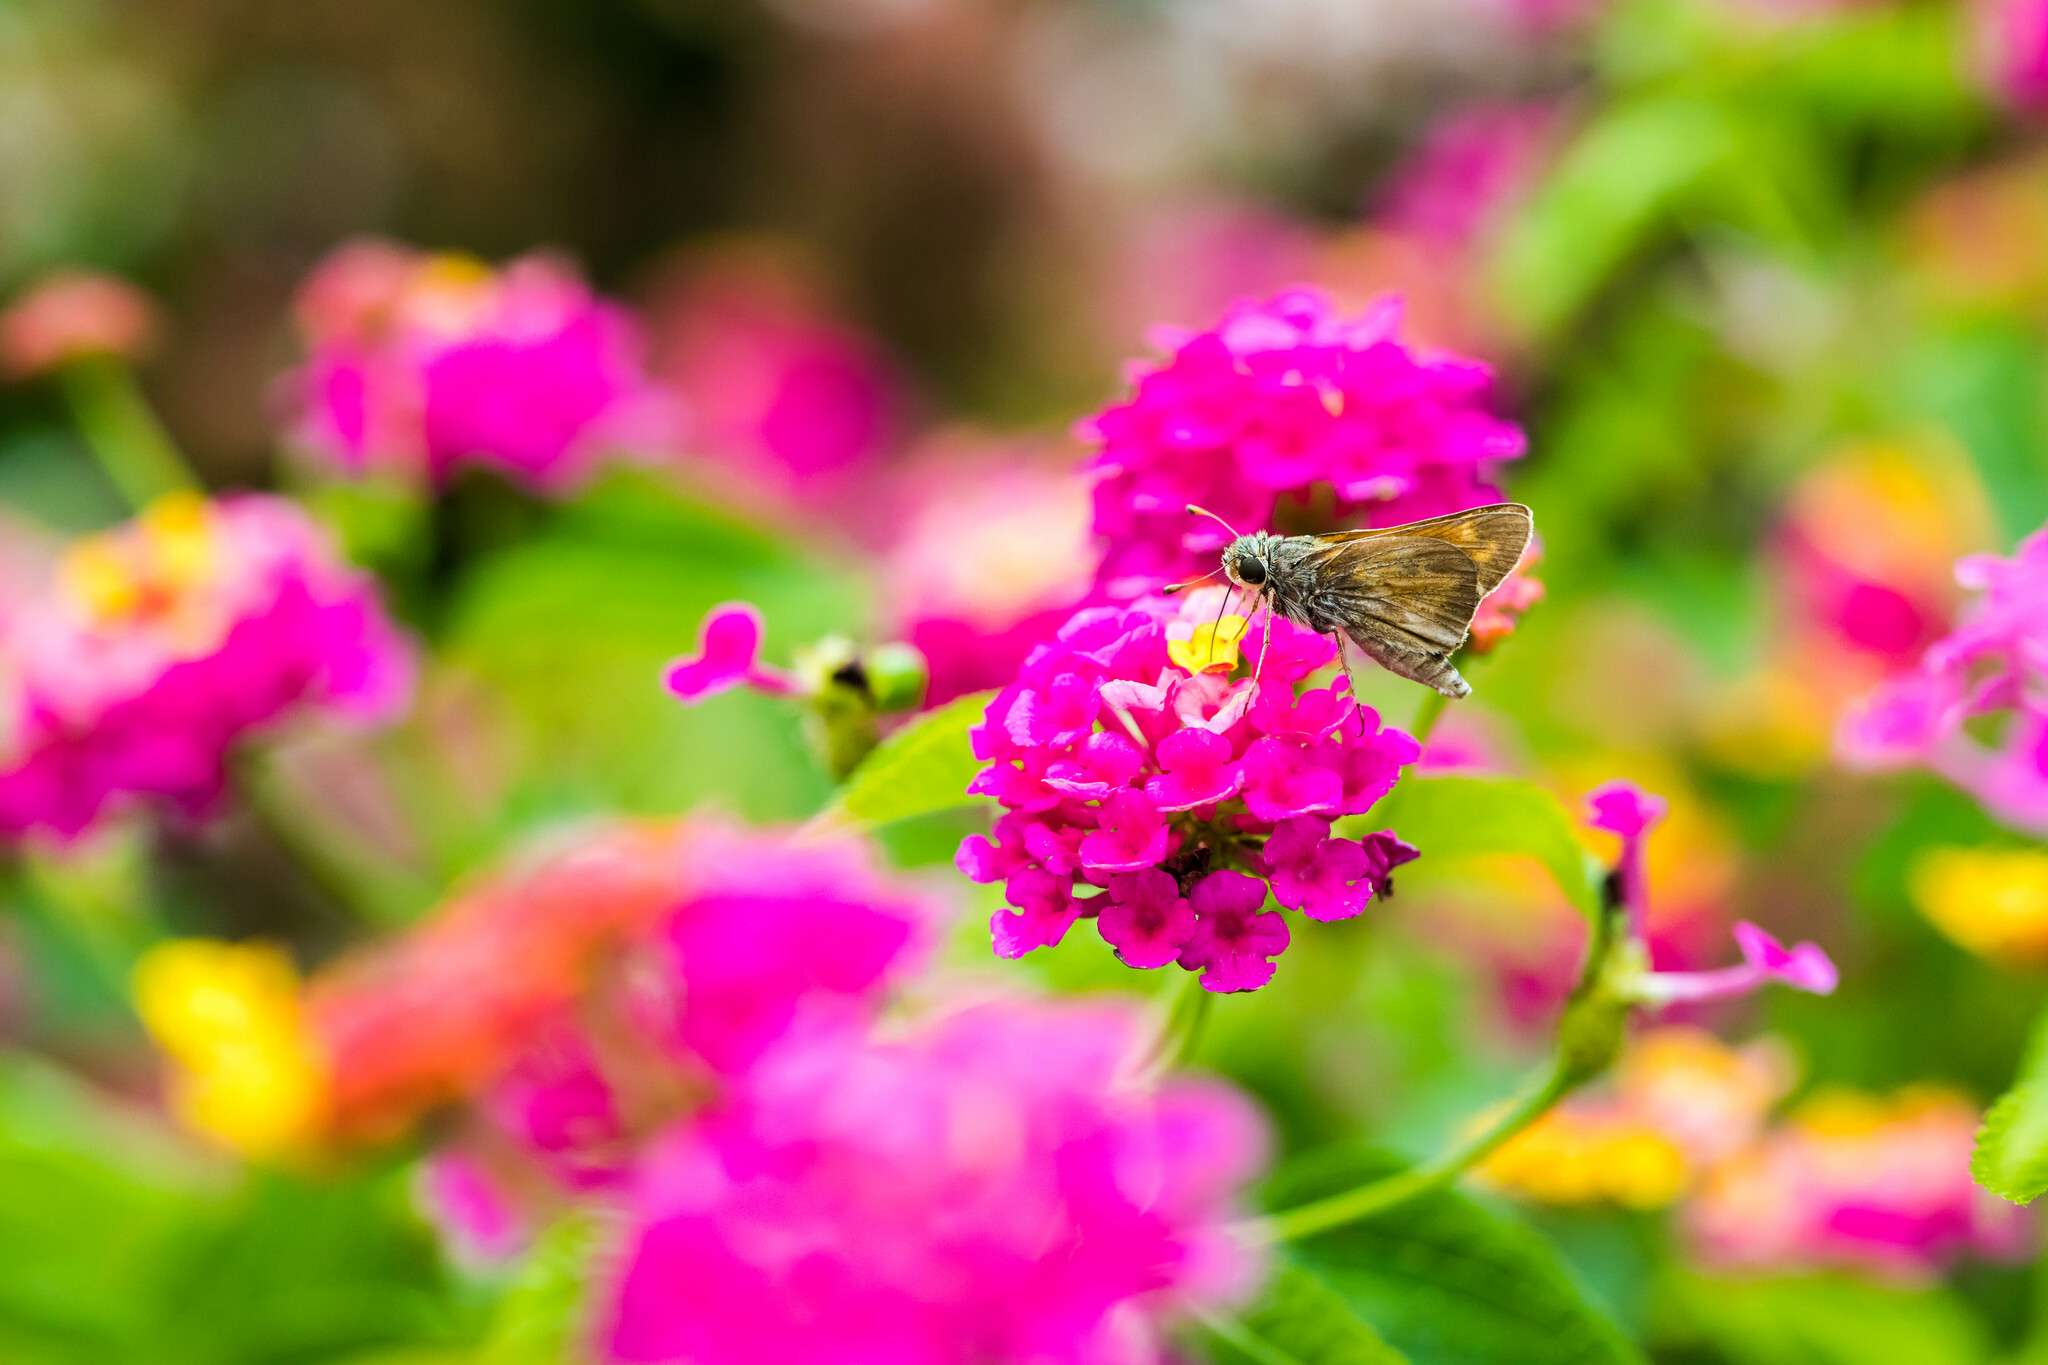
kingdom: Animalia
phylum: Arthropoda
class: Insecta
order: Lepidoptera
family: Hesperiidae
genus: Atalopedes
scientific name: Atalopedes
